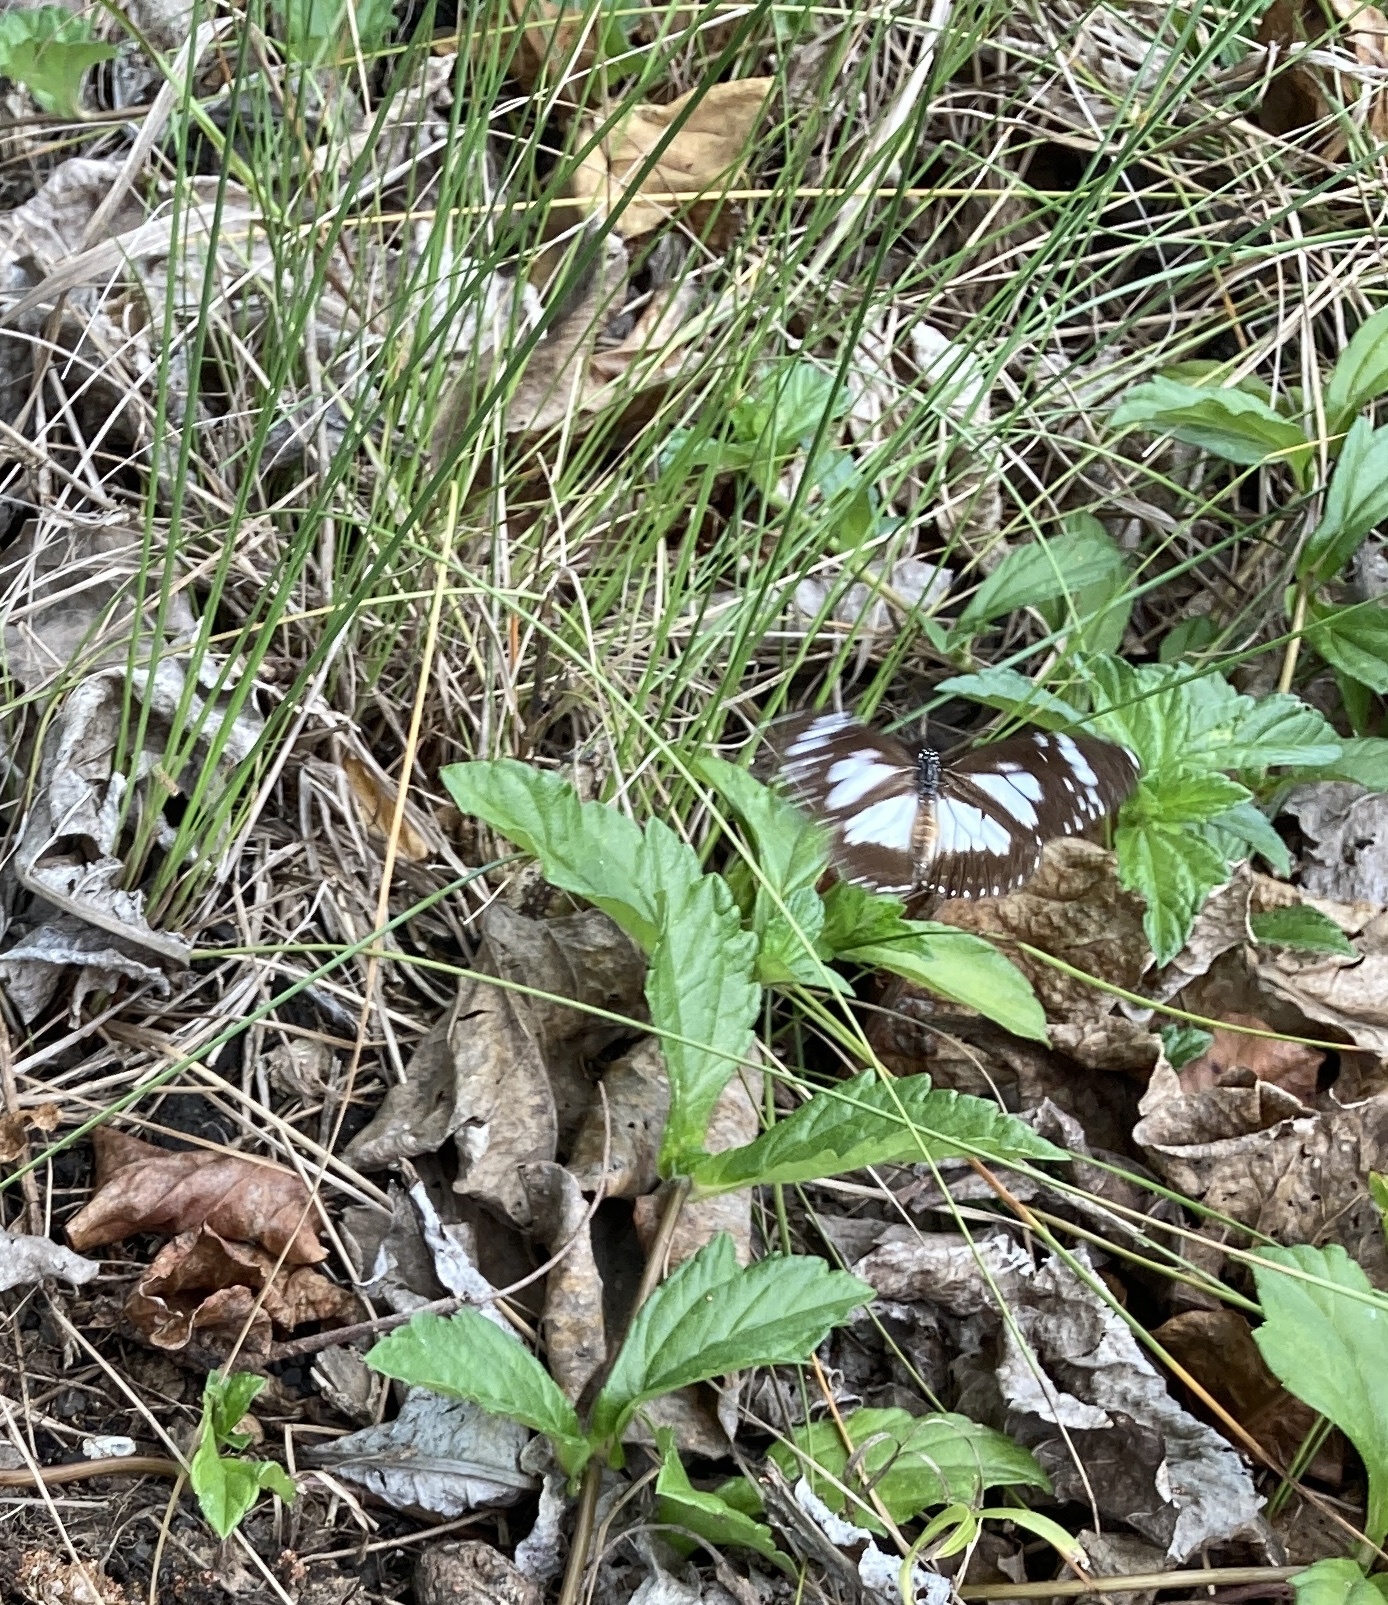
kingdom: Animalia
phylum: Arthropoda
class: Insecta
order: Lepidoptera
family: Nymphalidae
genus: Danaus
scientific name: Danaus affinis
